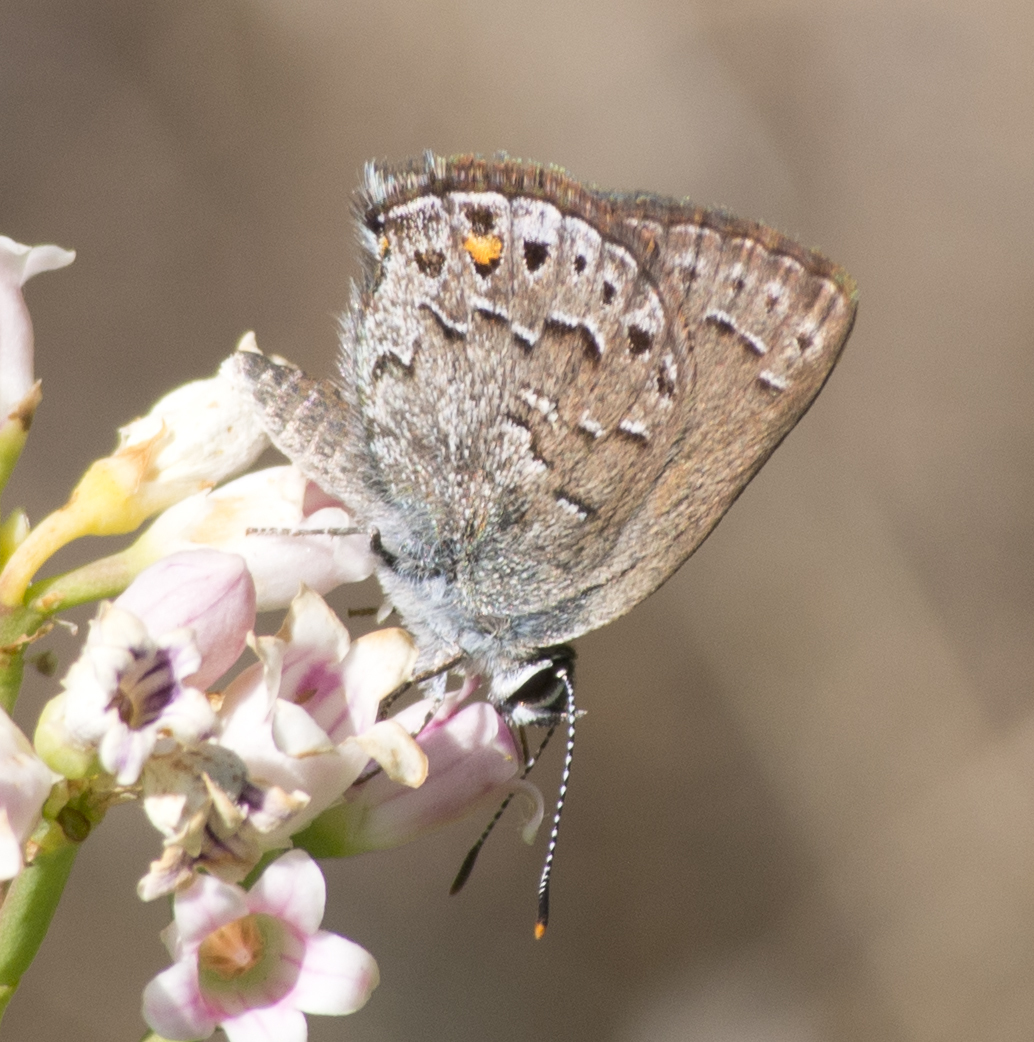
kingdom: Animalia
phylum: Arthropoda
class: Insecta
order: Lepidoptera
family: Lycaenidae
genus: Satyrium
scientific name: Satyrium behrii
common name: Behr's hairstreak
